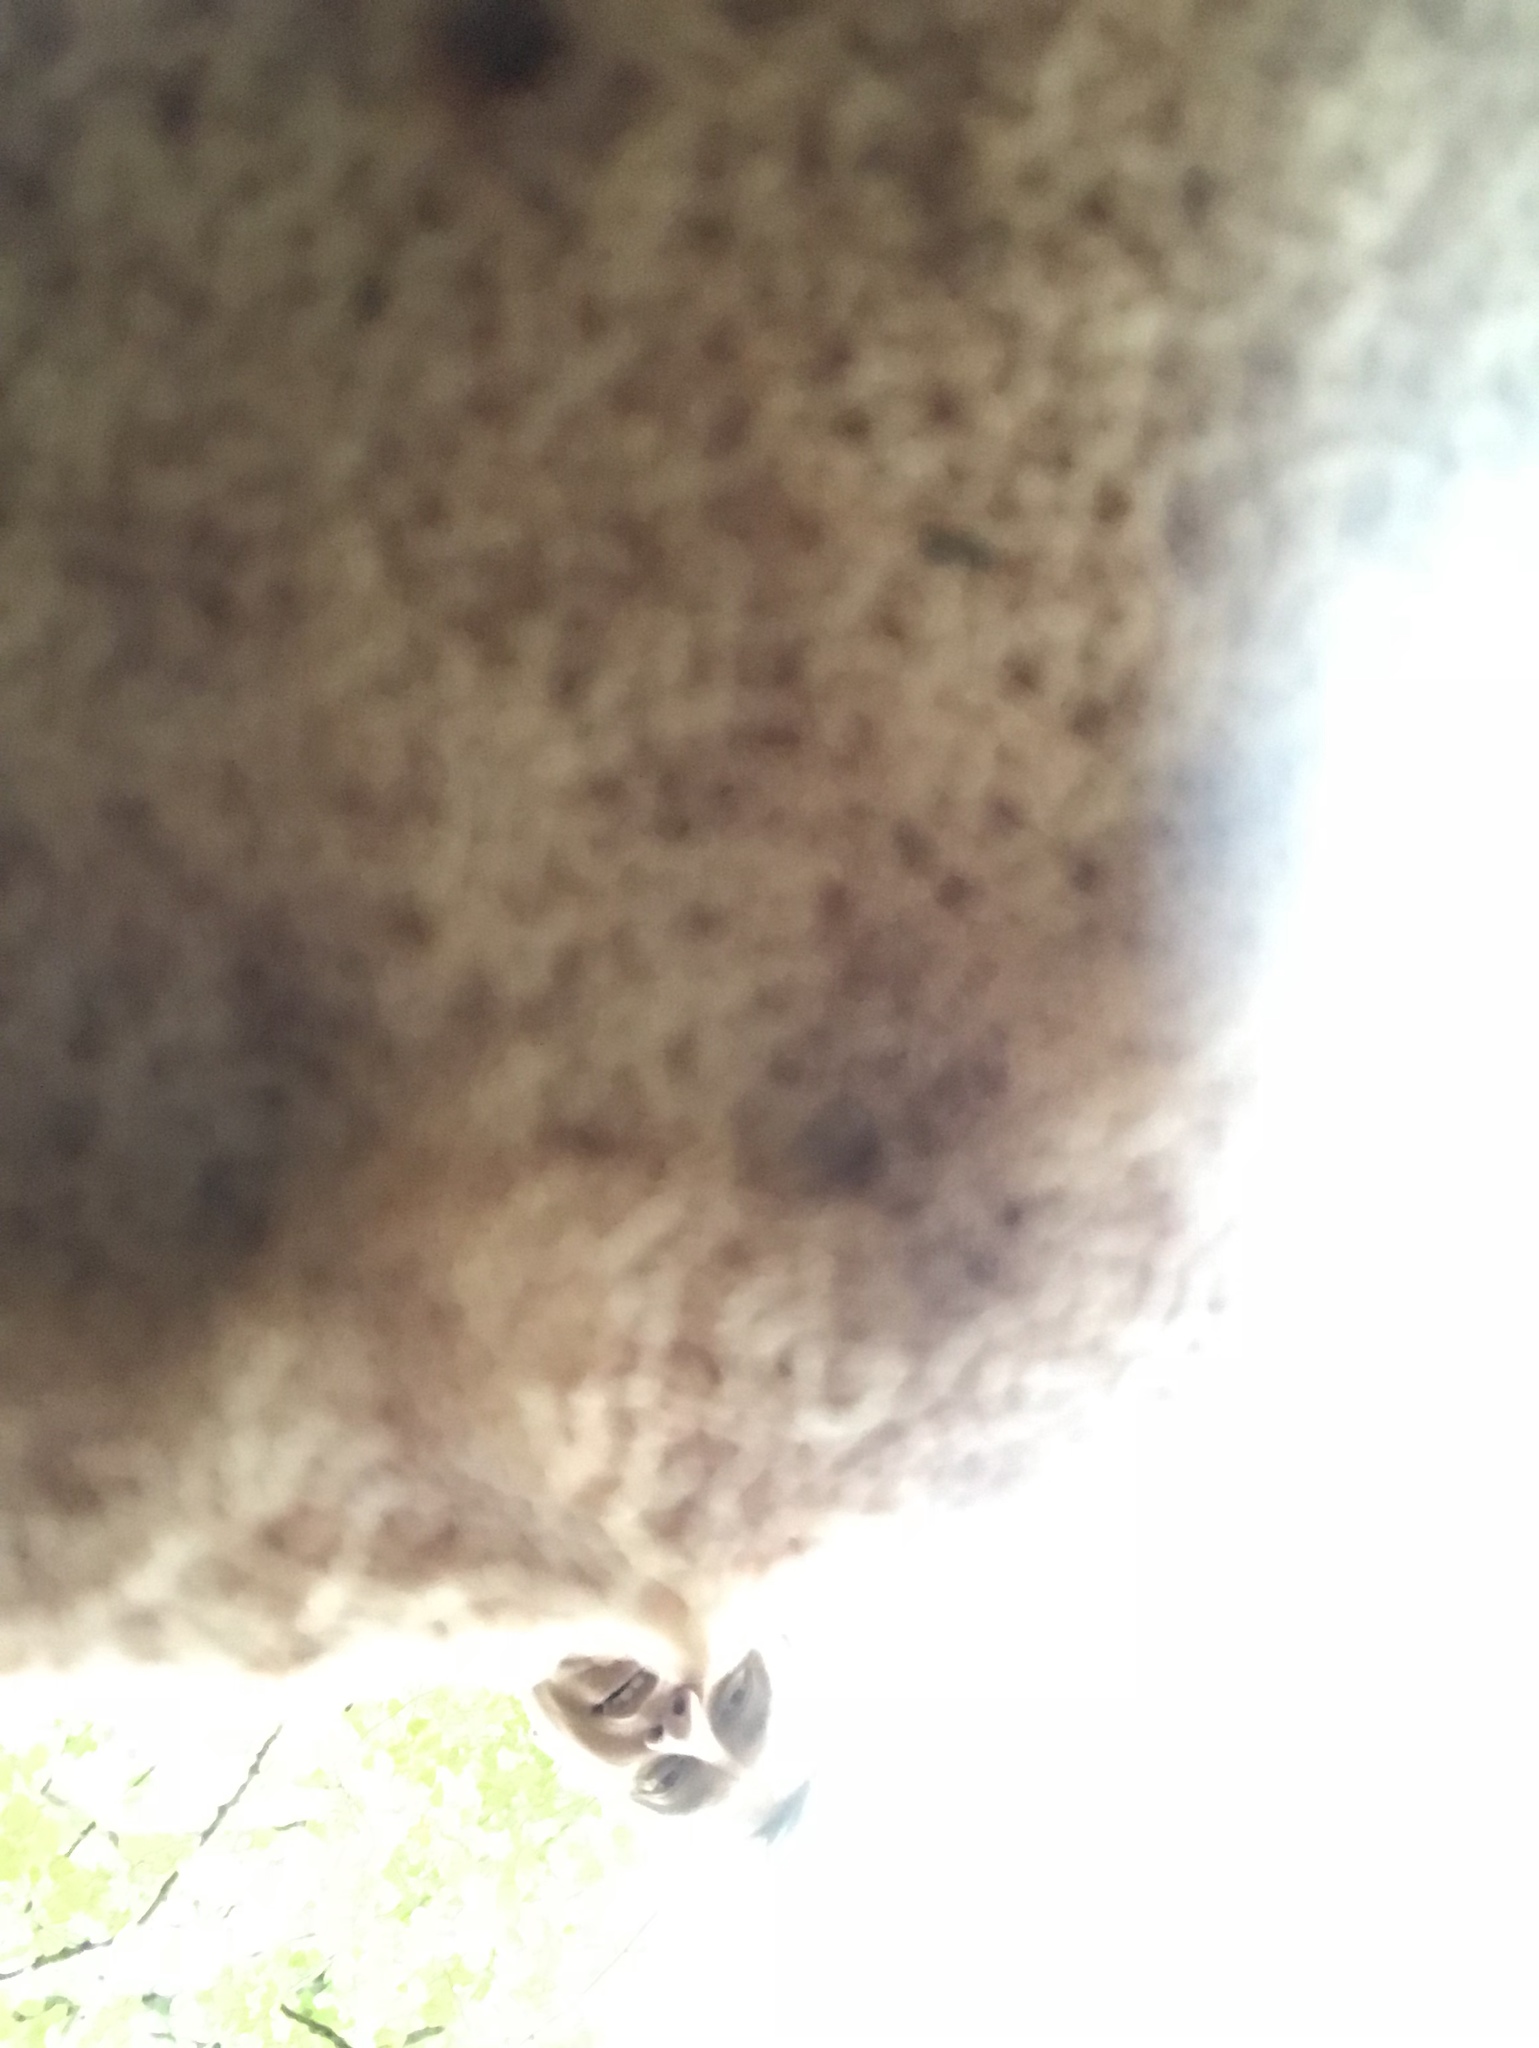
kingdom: Fungi
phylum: Basidiomycota
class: Agaricomycetes
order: Boletales
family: Boletaceae
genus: Tylopilus
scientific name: Tylopilus felleus
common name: Bitter bolete
